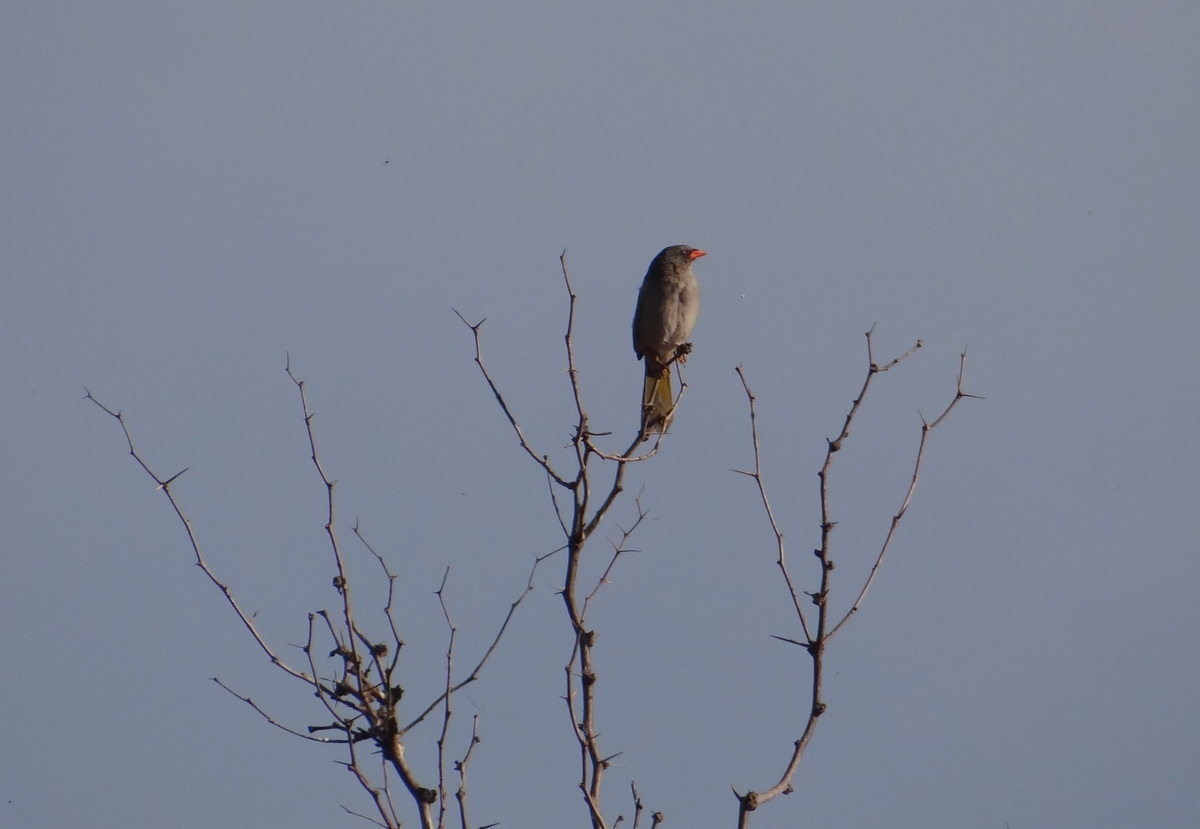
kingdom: Animalia
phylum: Chordata
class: Aves
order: Passeriformes
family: Thraupidae
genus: Embernagra
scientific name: Embernagra platensis
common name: Pampa finch
